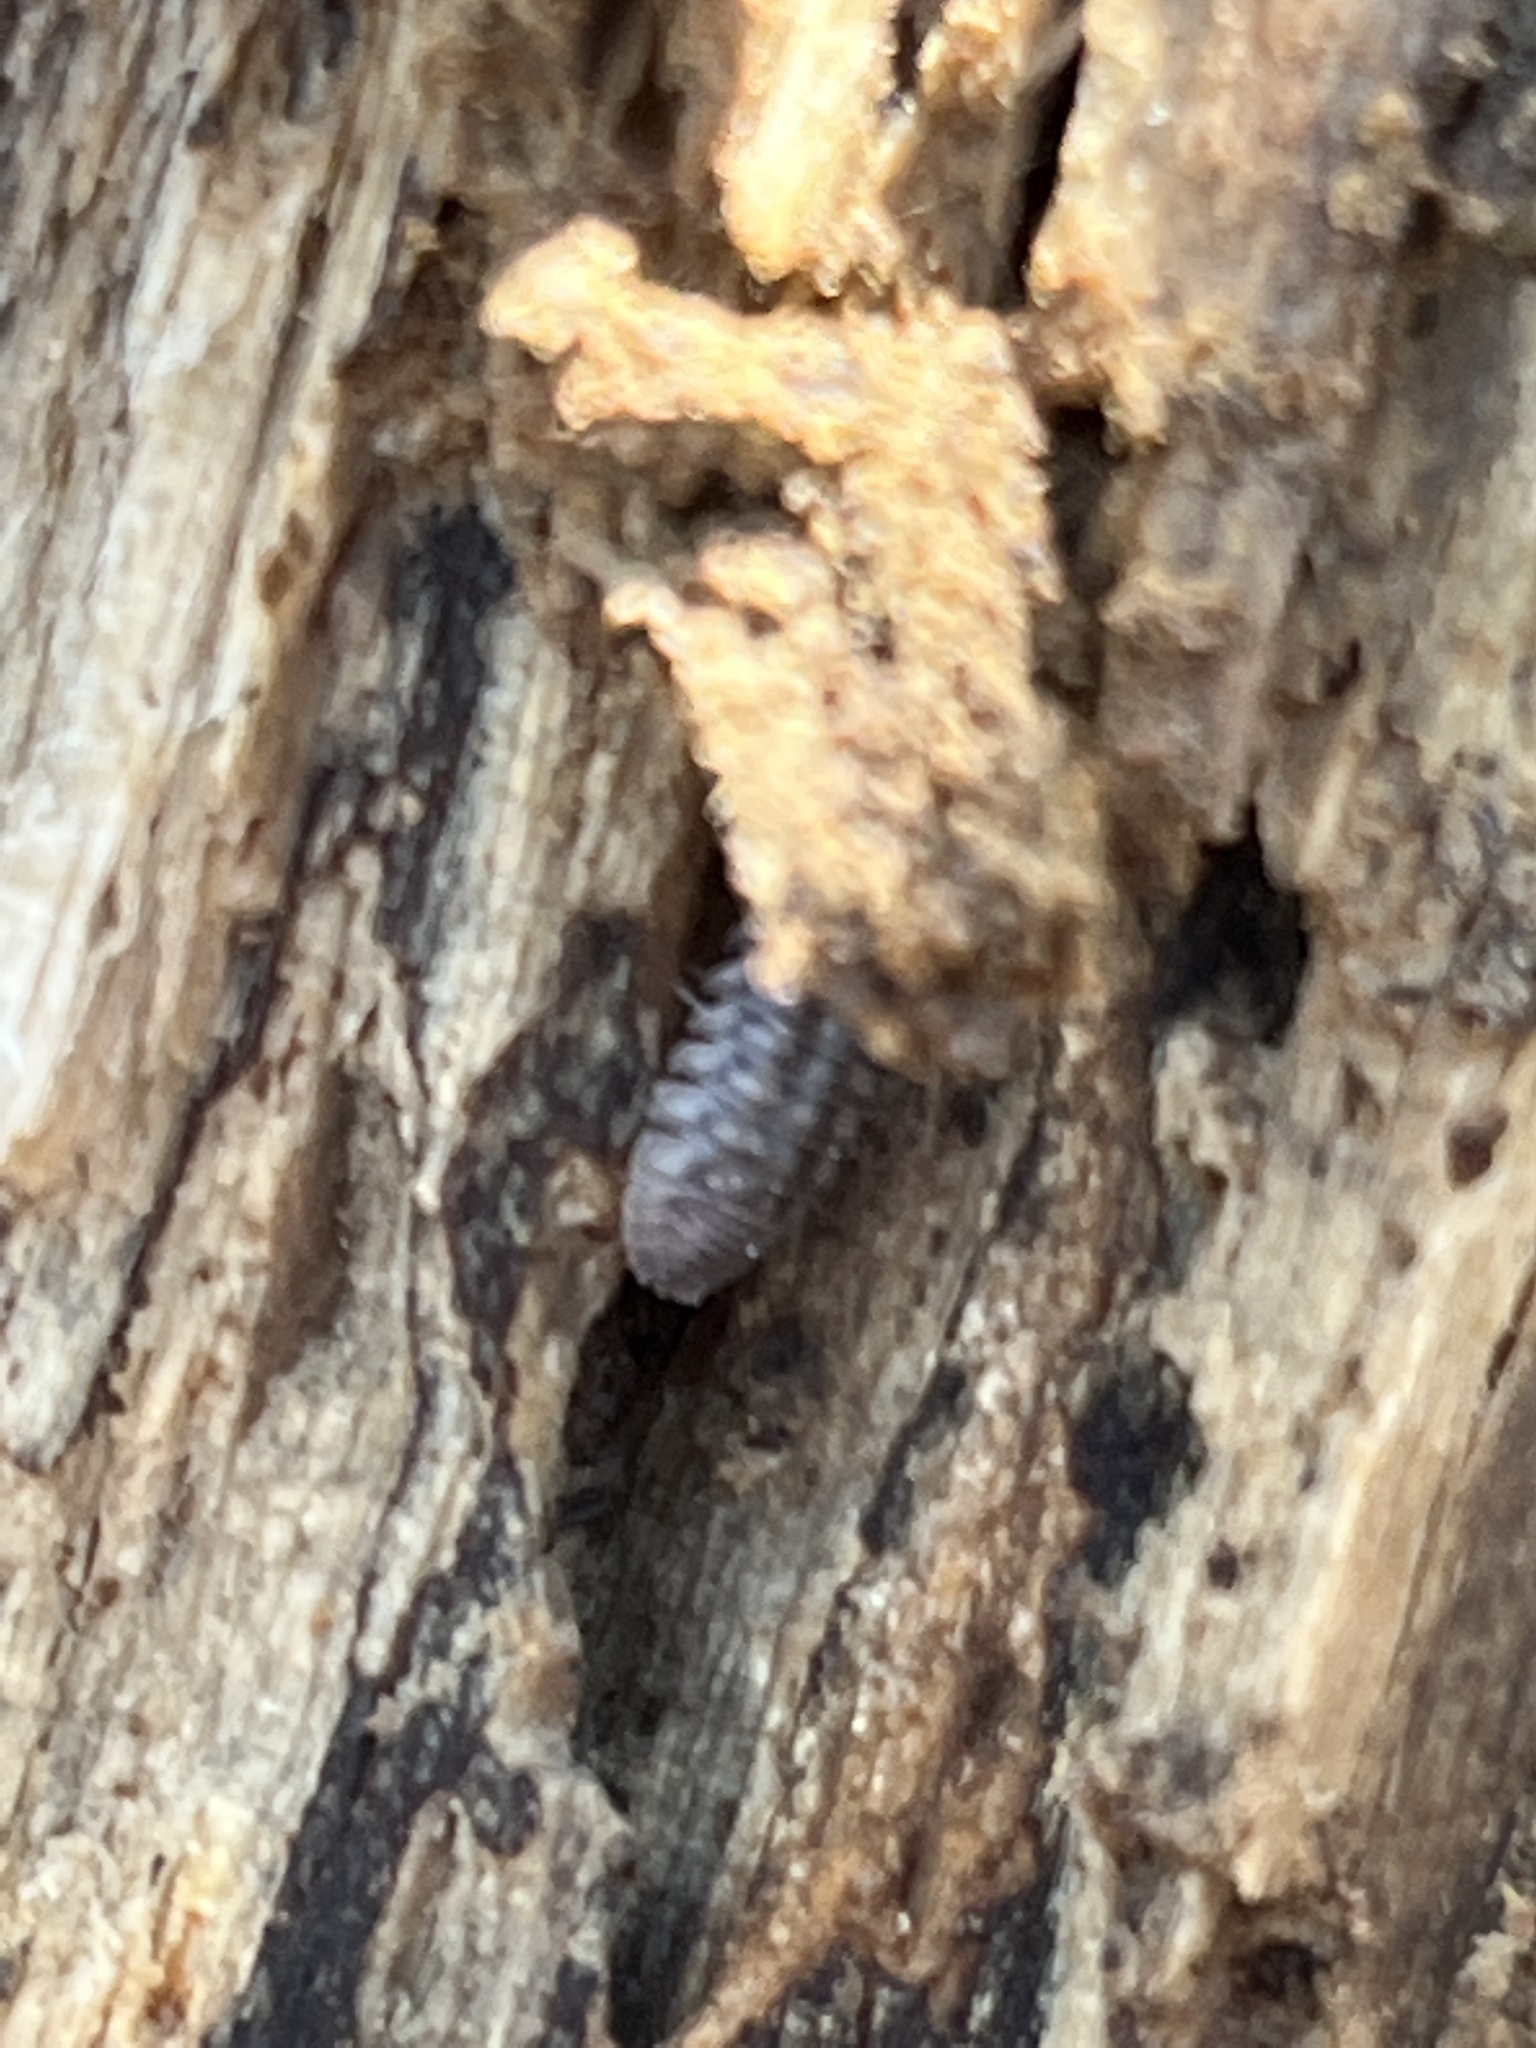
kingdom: Animalia
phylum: Arthropoda
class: Malacostraca
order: Isopoda
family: Armadillidiidae
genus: Armadillidium
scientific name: Armadillidium nasatum
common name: Isopod
